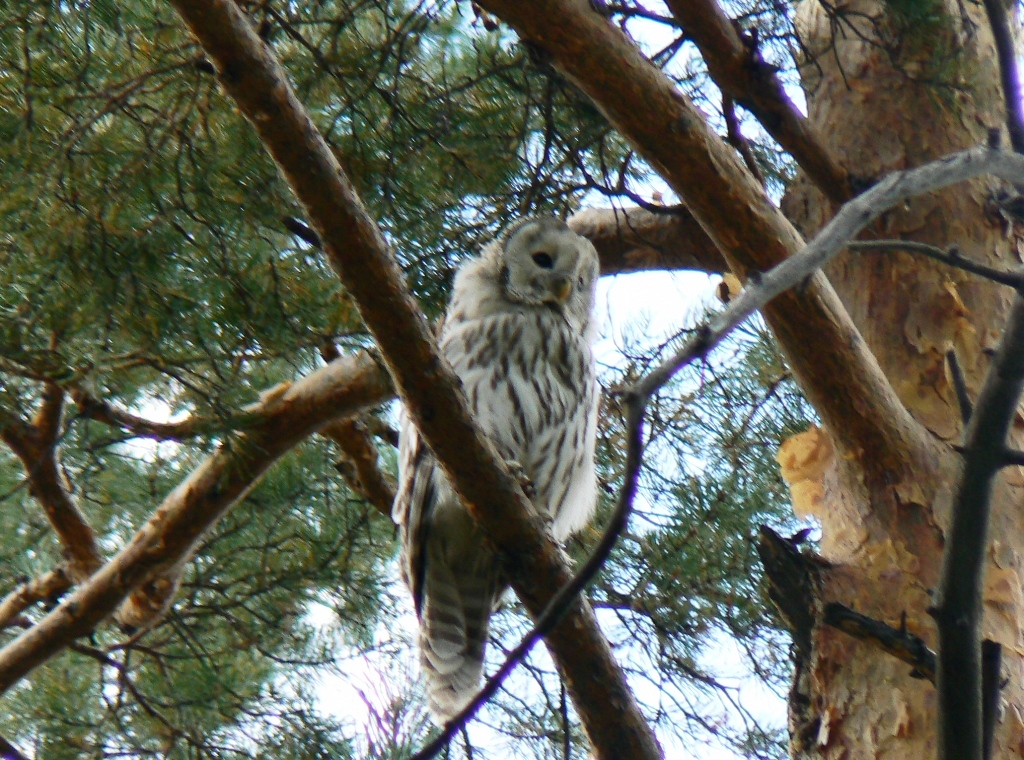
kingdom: Animalia
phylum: Chordata
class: Aves
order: Strigiformes
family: Strigidae
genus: Strix
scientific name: Strix uralensis
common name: Ural owl
